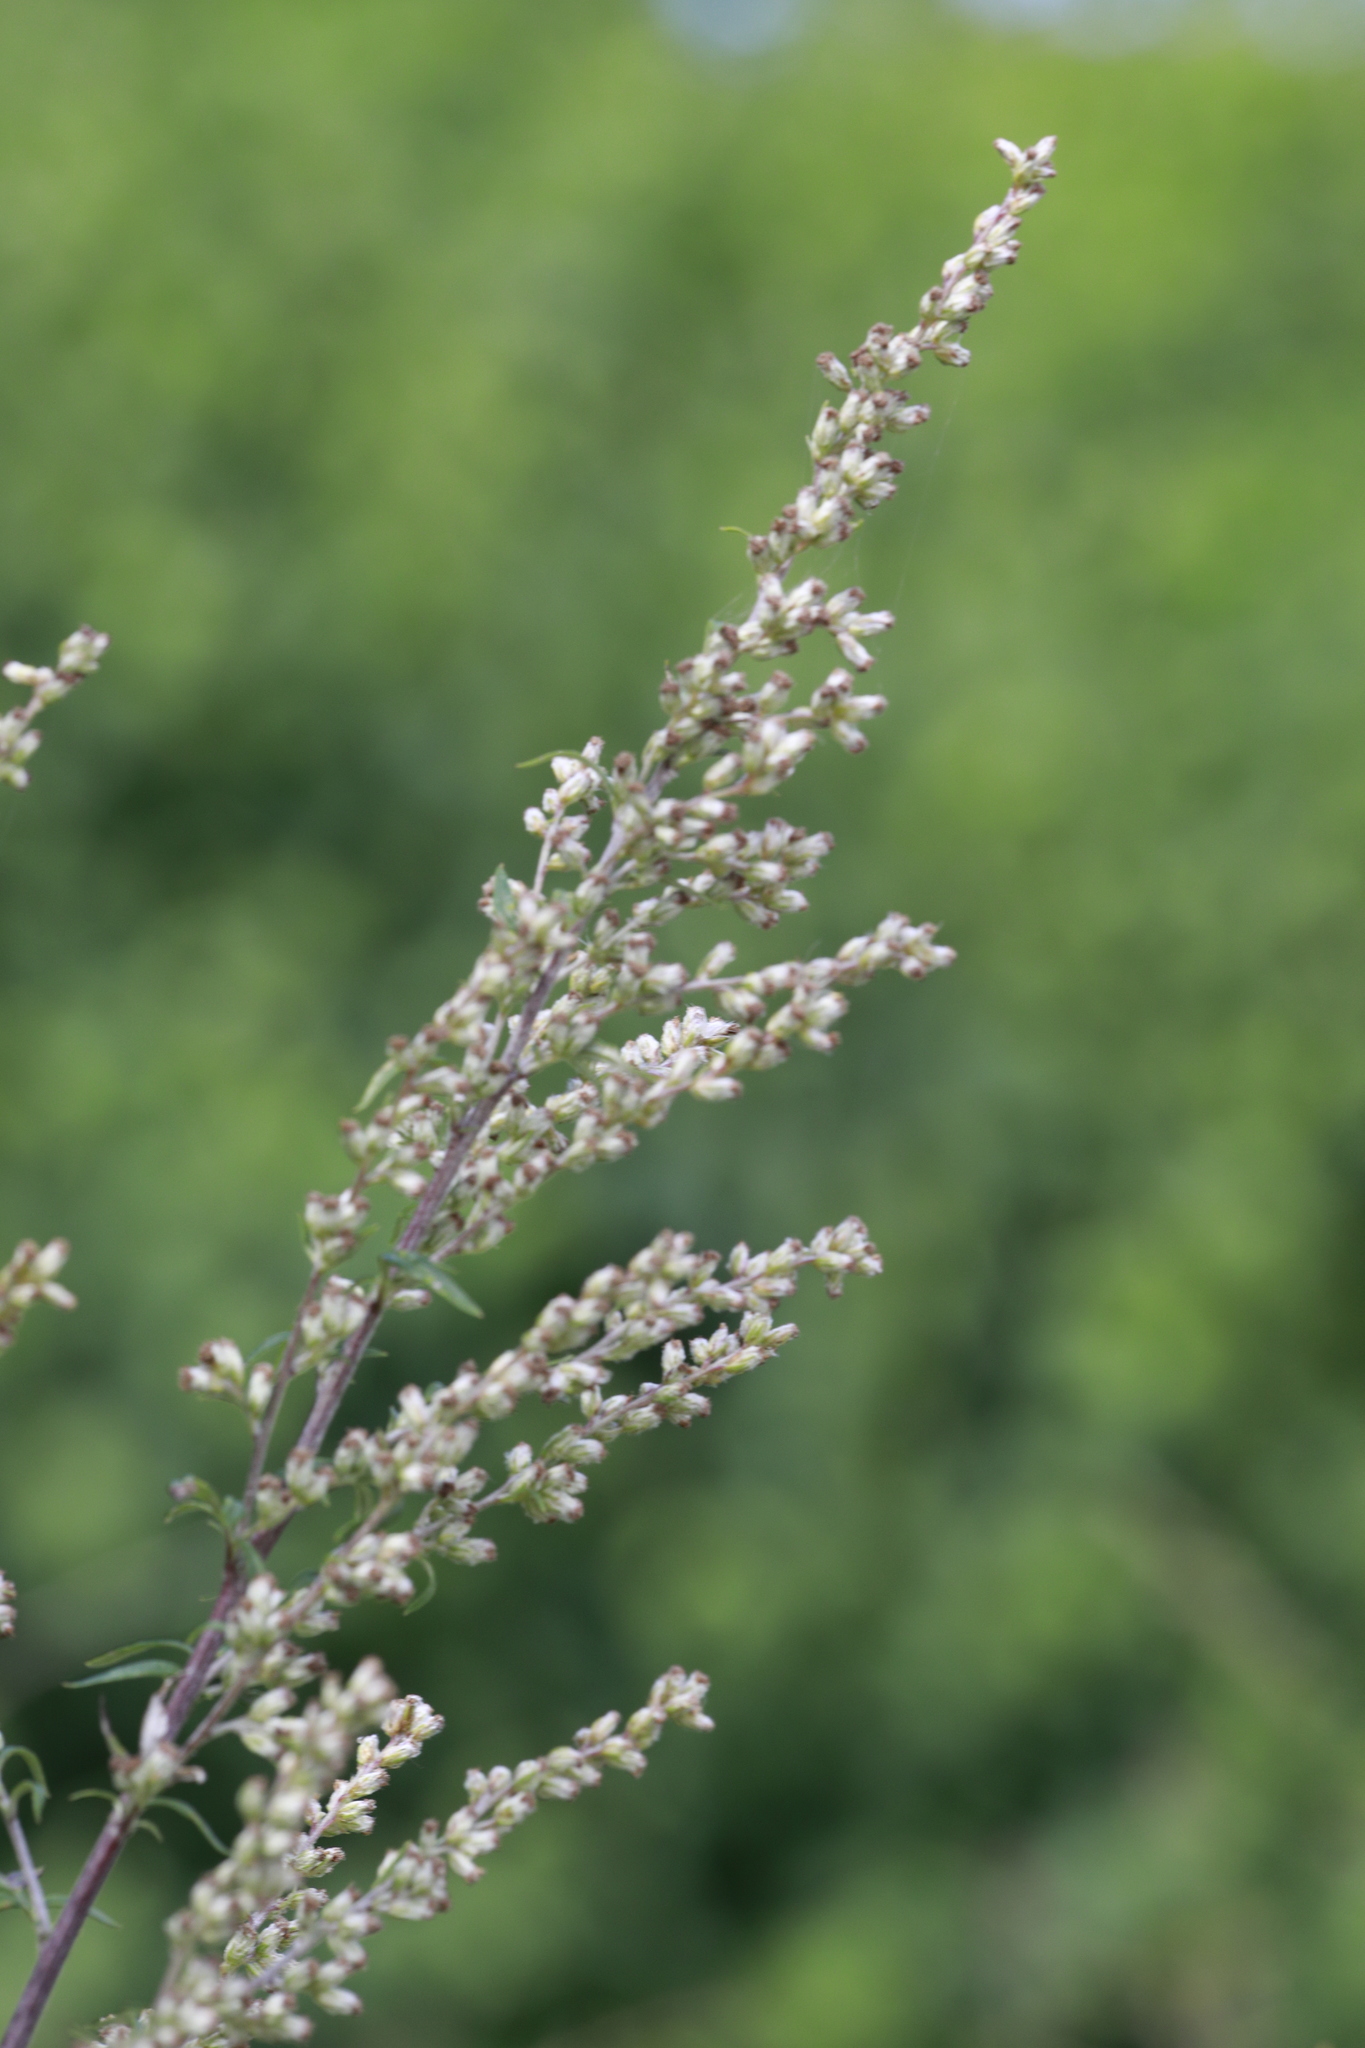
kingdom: Plantae
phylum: Tracheophyta
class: Magnoliopsida
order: Asterales
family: Asteraceae
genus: Artemisia
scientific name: Artemisia vulgaris
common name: Mugwort
